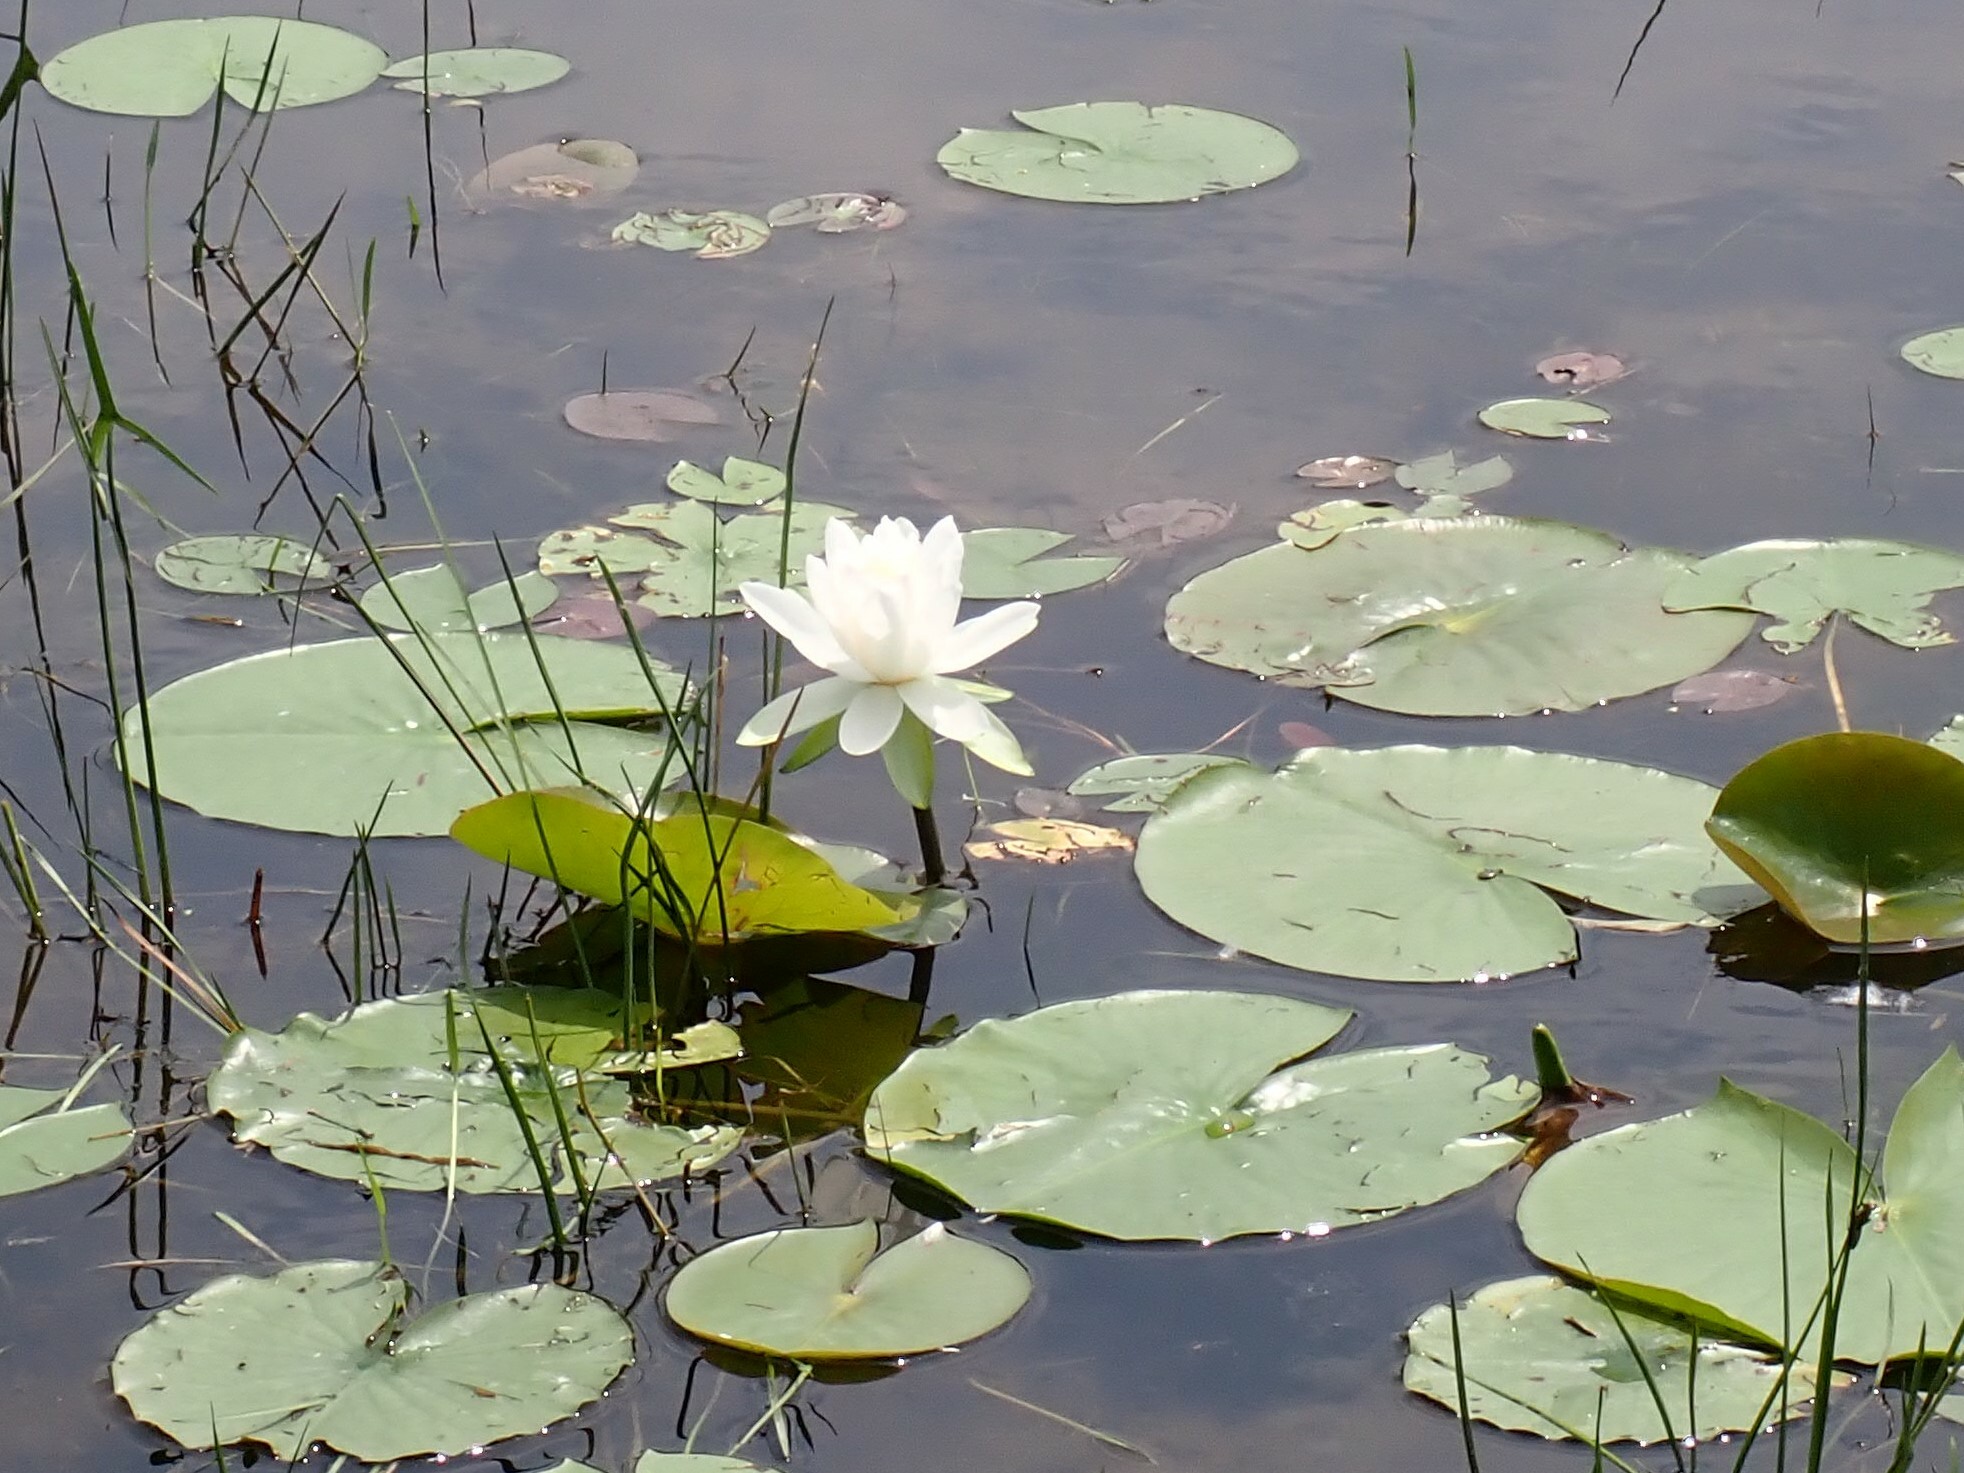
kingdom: Plantae
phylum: Tracheophyta
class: Magnoliopsida
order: Nymphaeales
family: Nymphaeaceae
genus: Nymphaea
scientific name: Nymphaea odorata
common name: Fragrant water-lily
